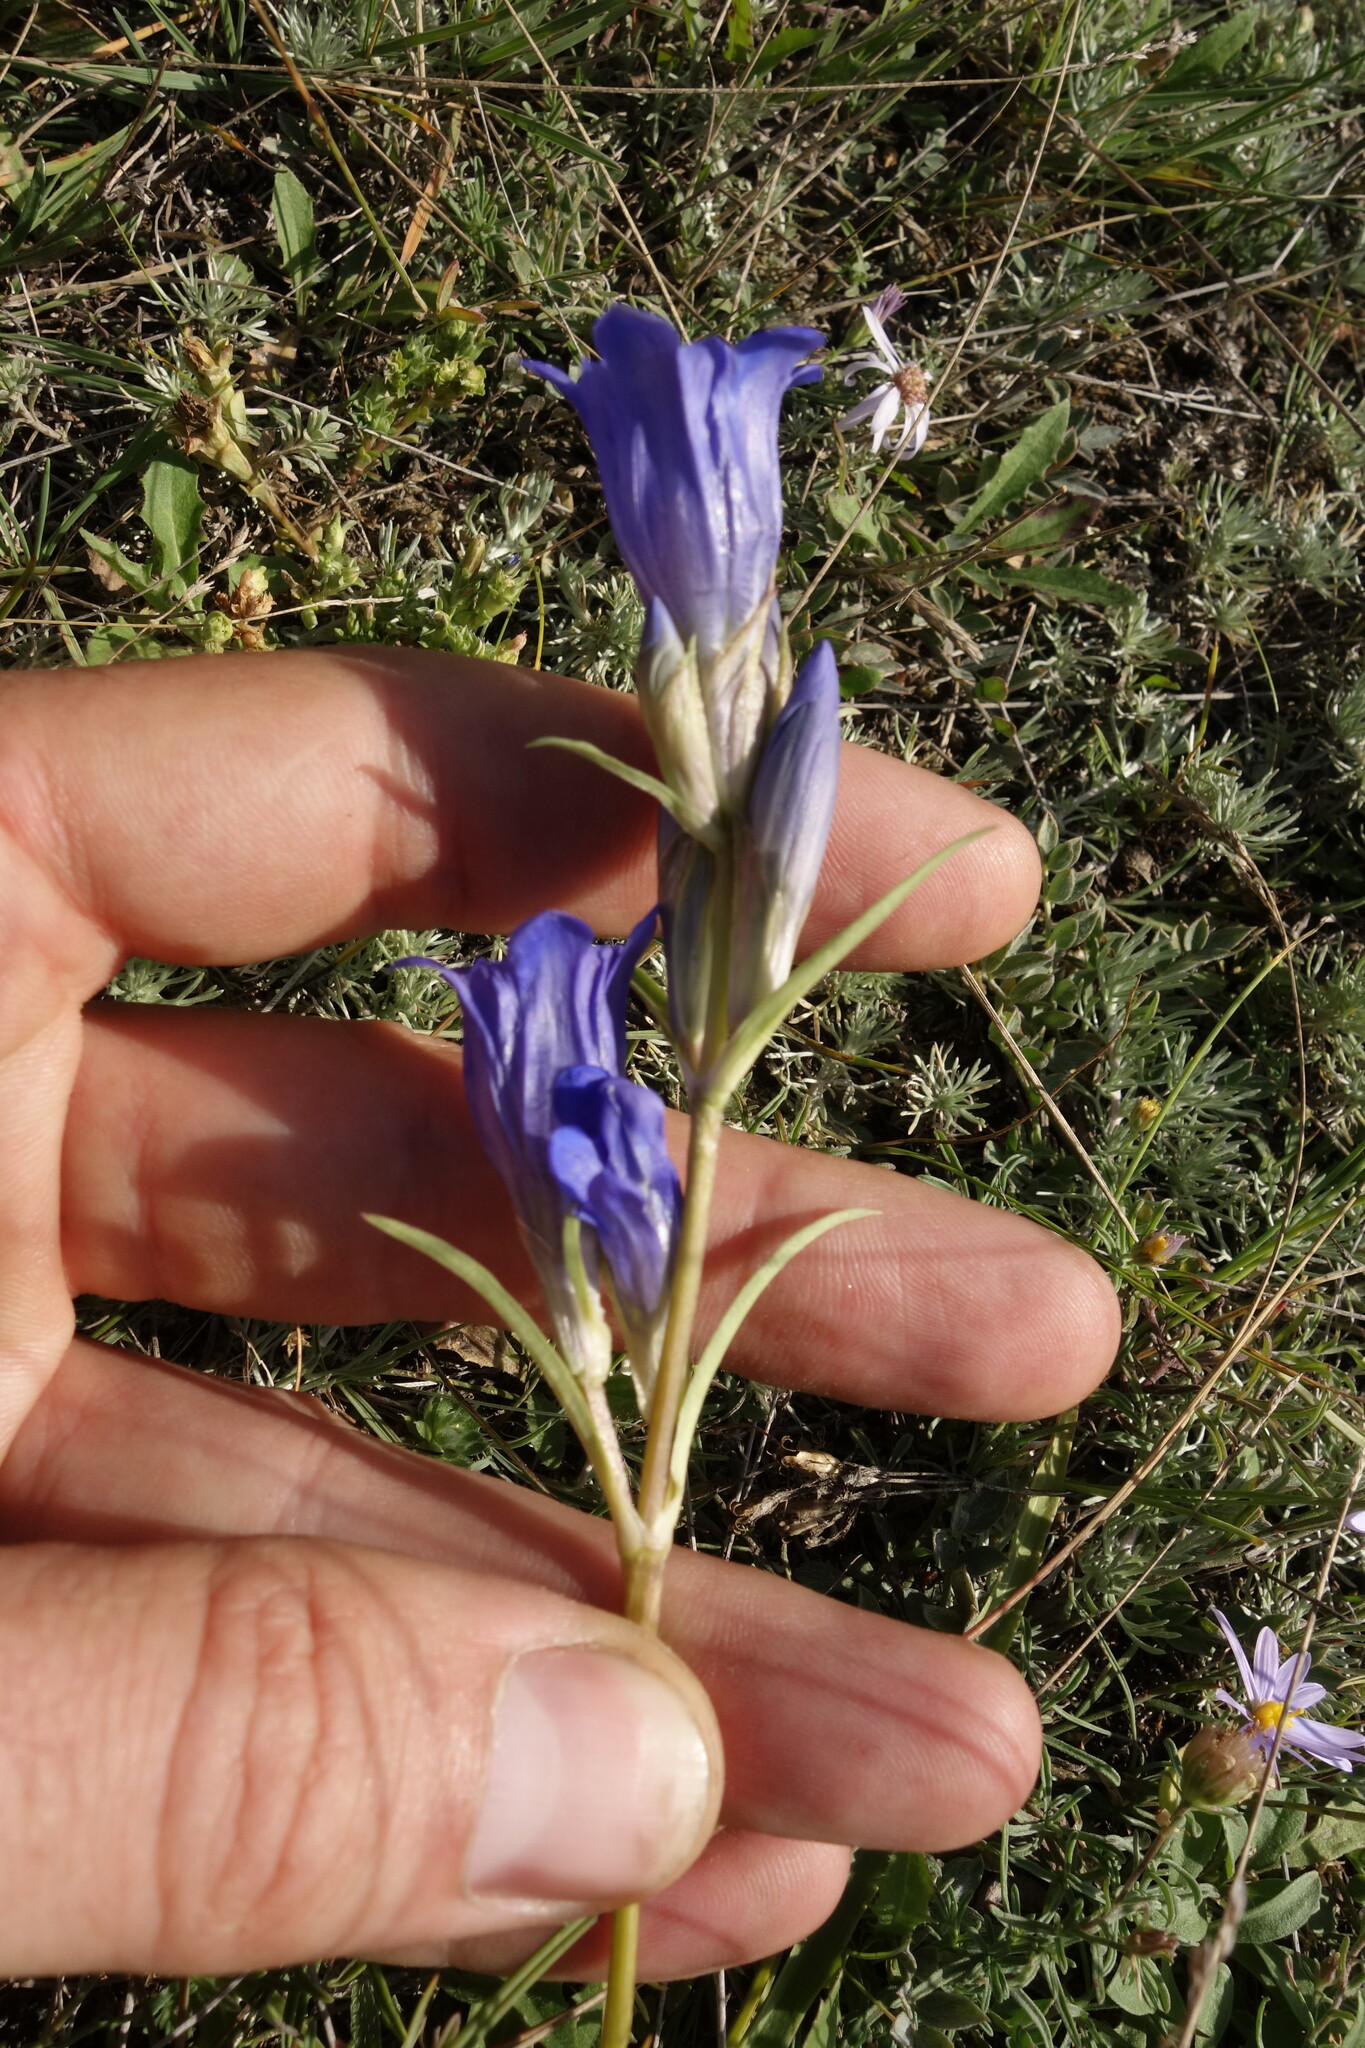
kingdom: Plantae
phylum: Tracheophyta
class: Magnoliopsida
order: Gentianales
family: Gentianaceae
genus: Gentiana
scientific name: Gentiana decumbens
